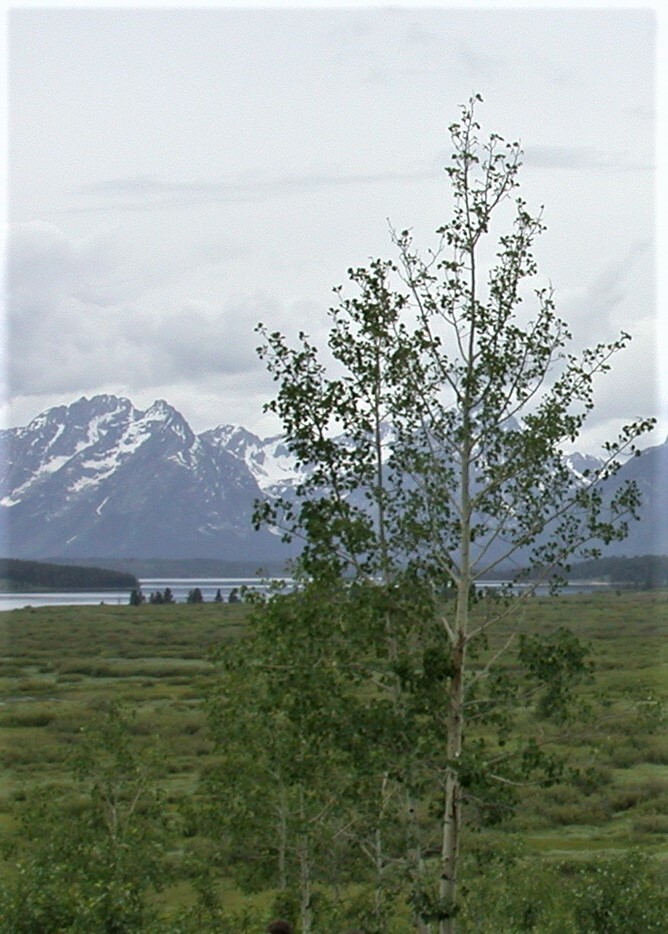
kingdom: Plantae
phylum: Tracheophyta
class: Magnoliopsida
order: Malpighiales
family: Salicaceae
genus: Populus
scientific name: Populus tremuloides
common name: Quaking aspen
